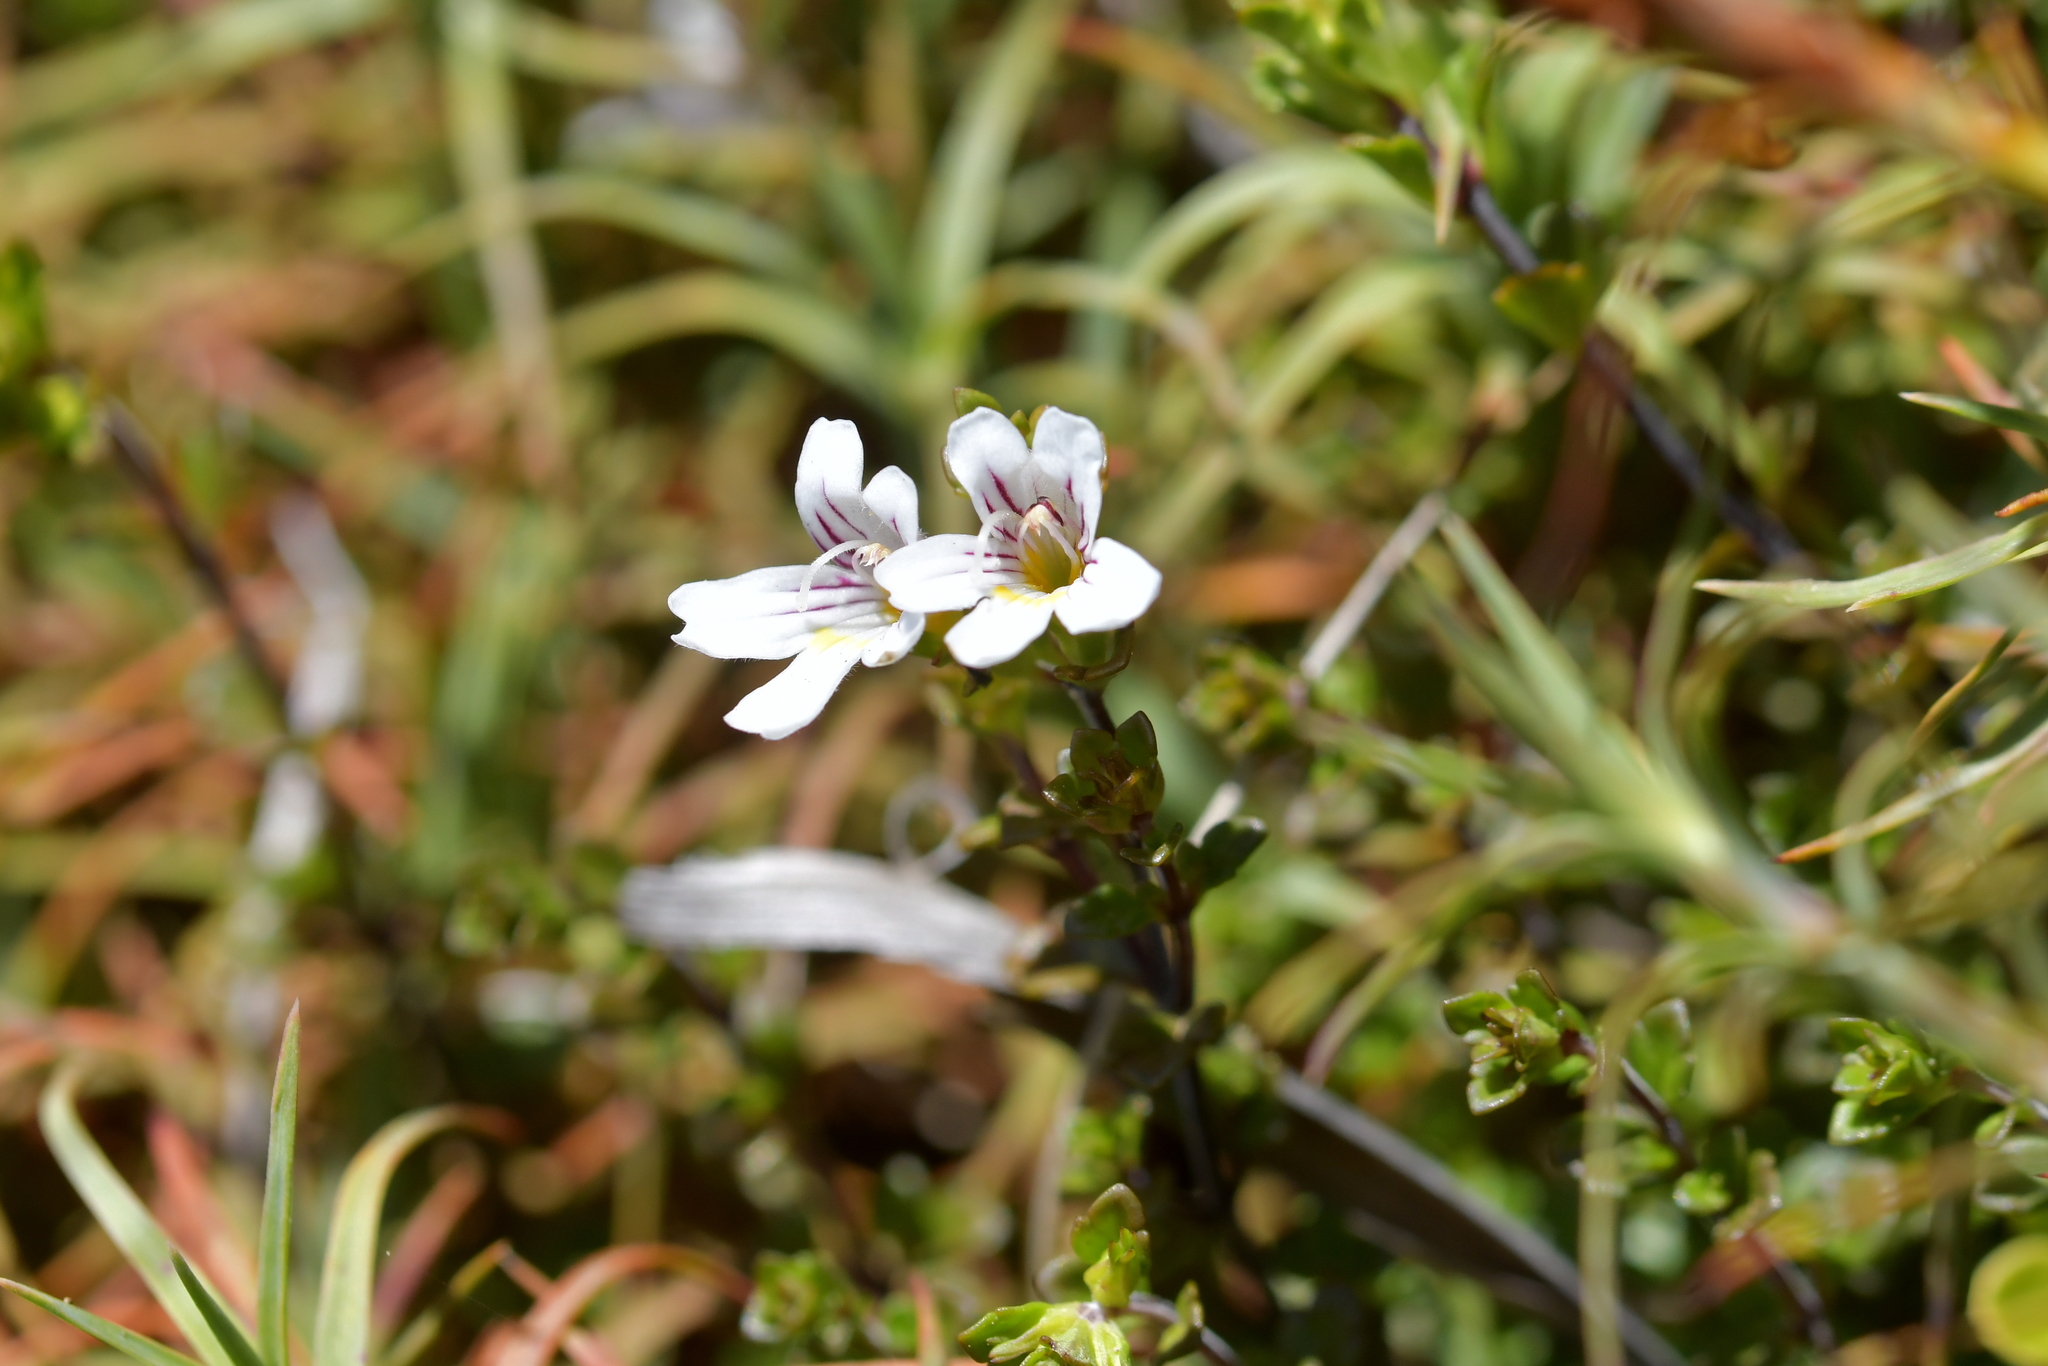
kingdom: Plantae
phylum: Tracheophyta
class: Magnoliopsida
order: Lamiales
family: Orobanchaceae
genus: Euphrasia
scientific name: Euphrasia cuneata
